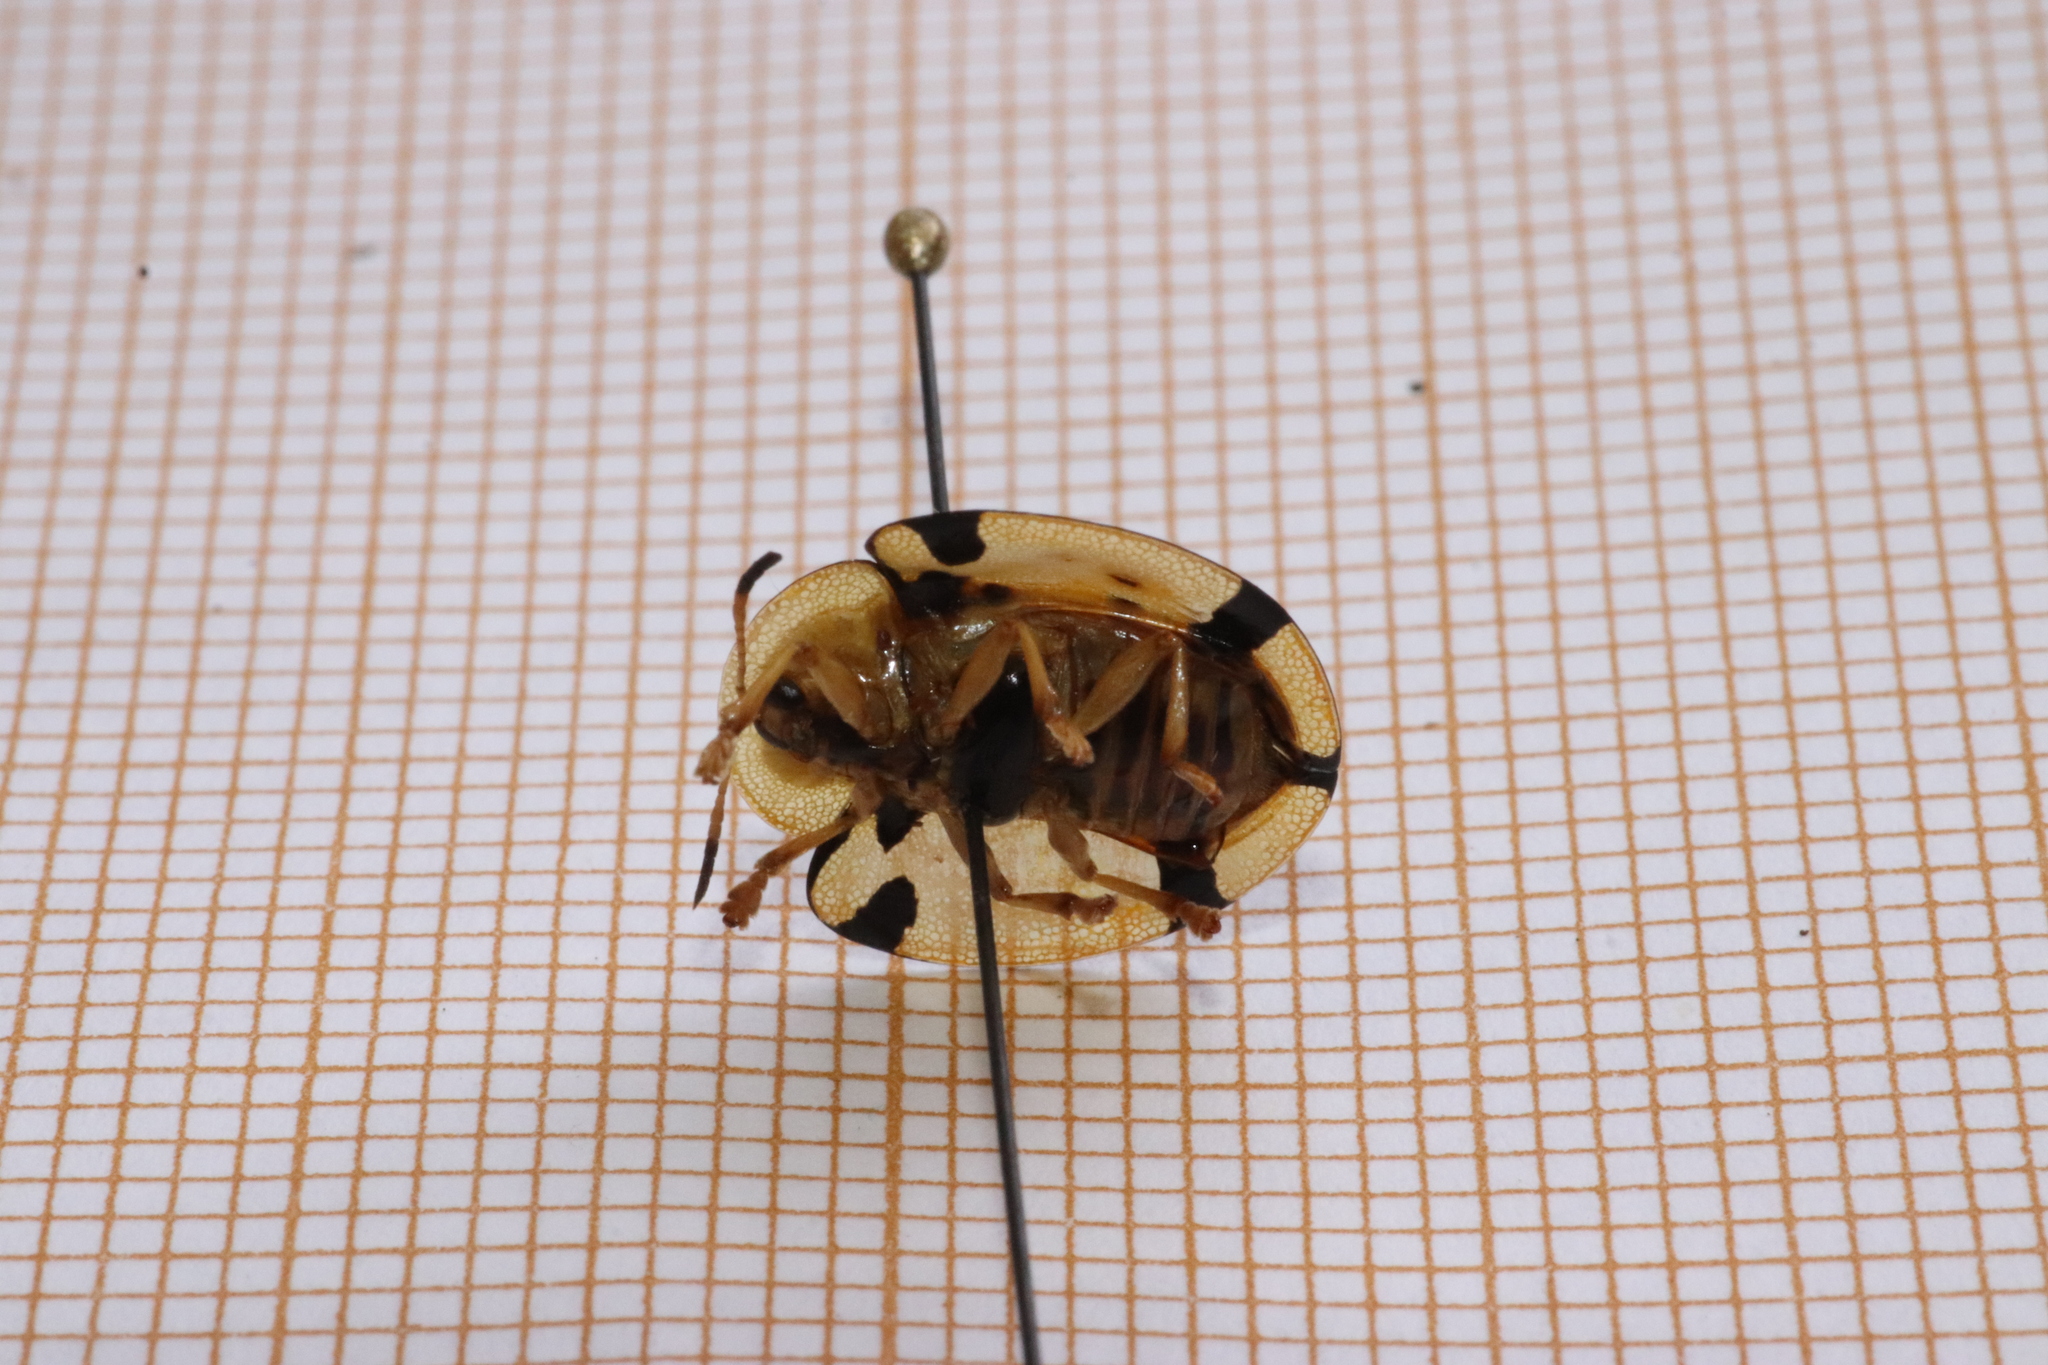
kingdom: Animalia
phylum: Arthropoda
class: Insecta
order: Coleoptera
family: Chrysomelidae
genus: Aspidimorpha
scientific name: Aspidimorpha miliaris
